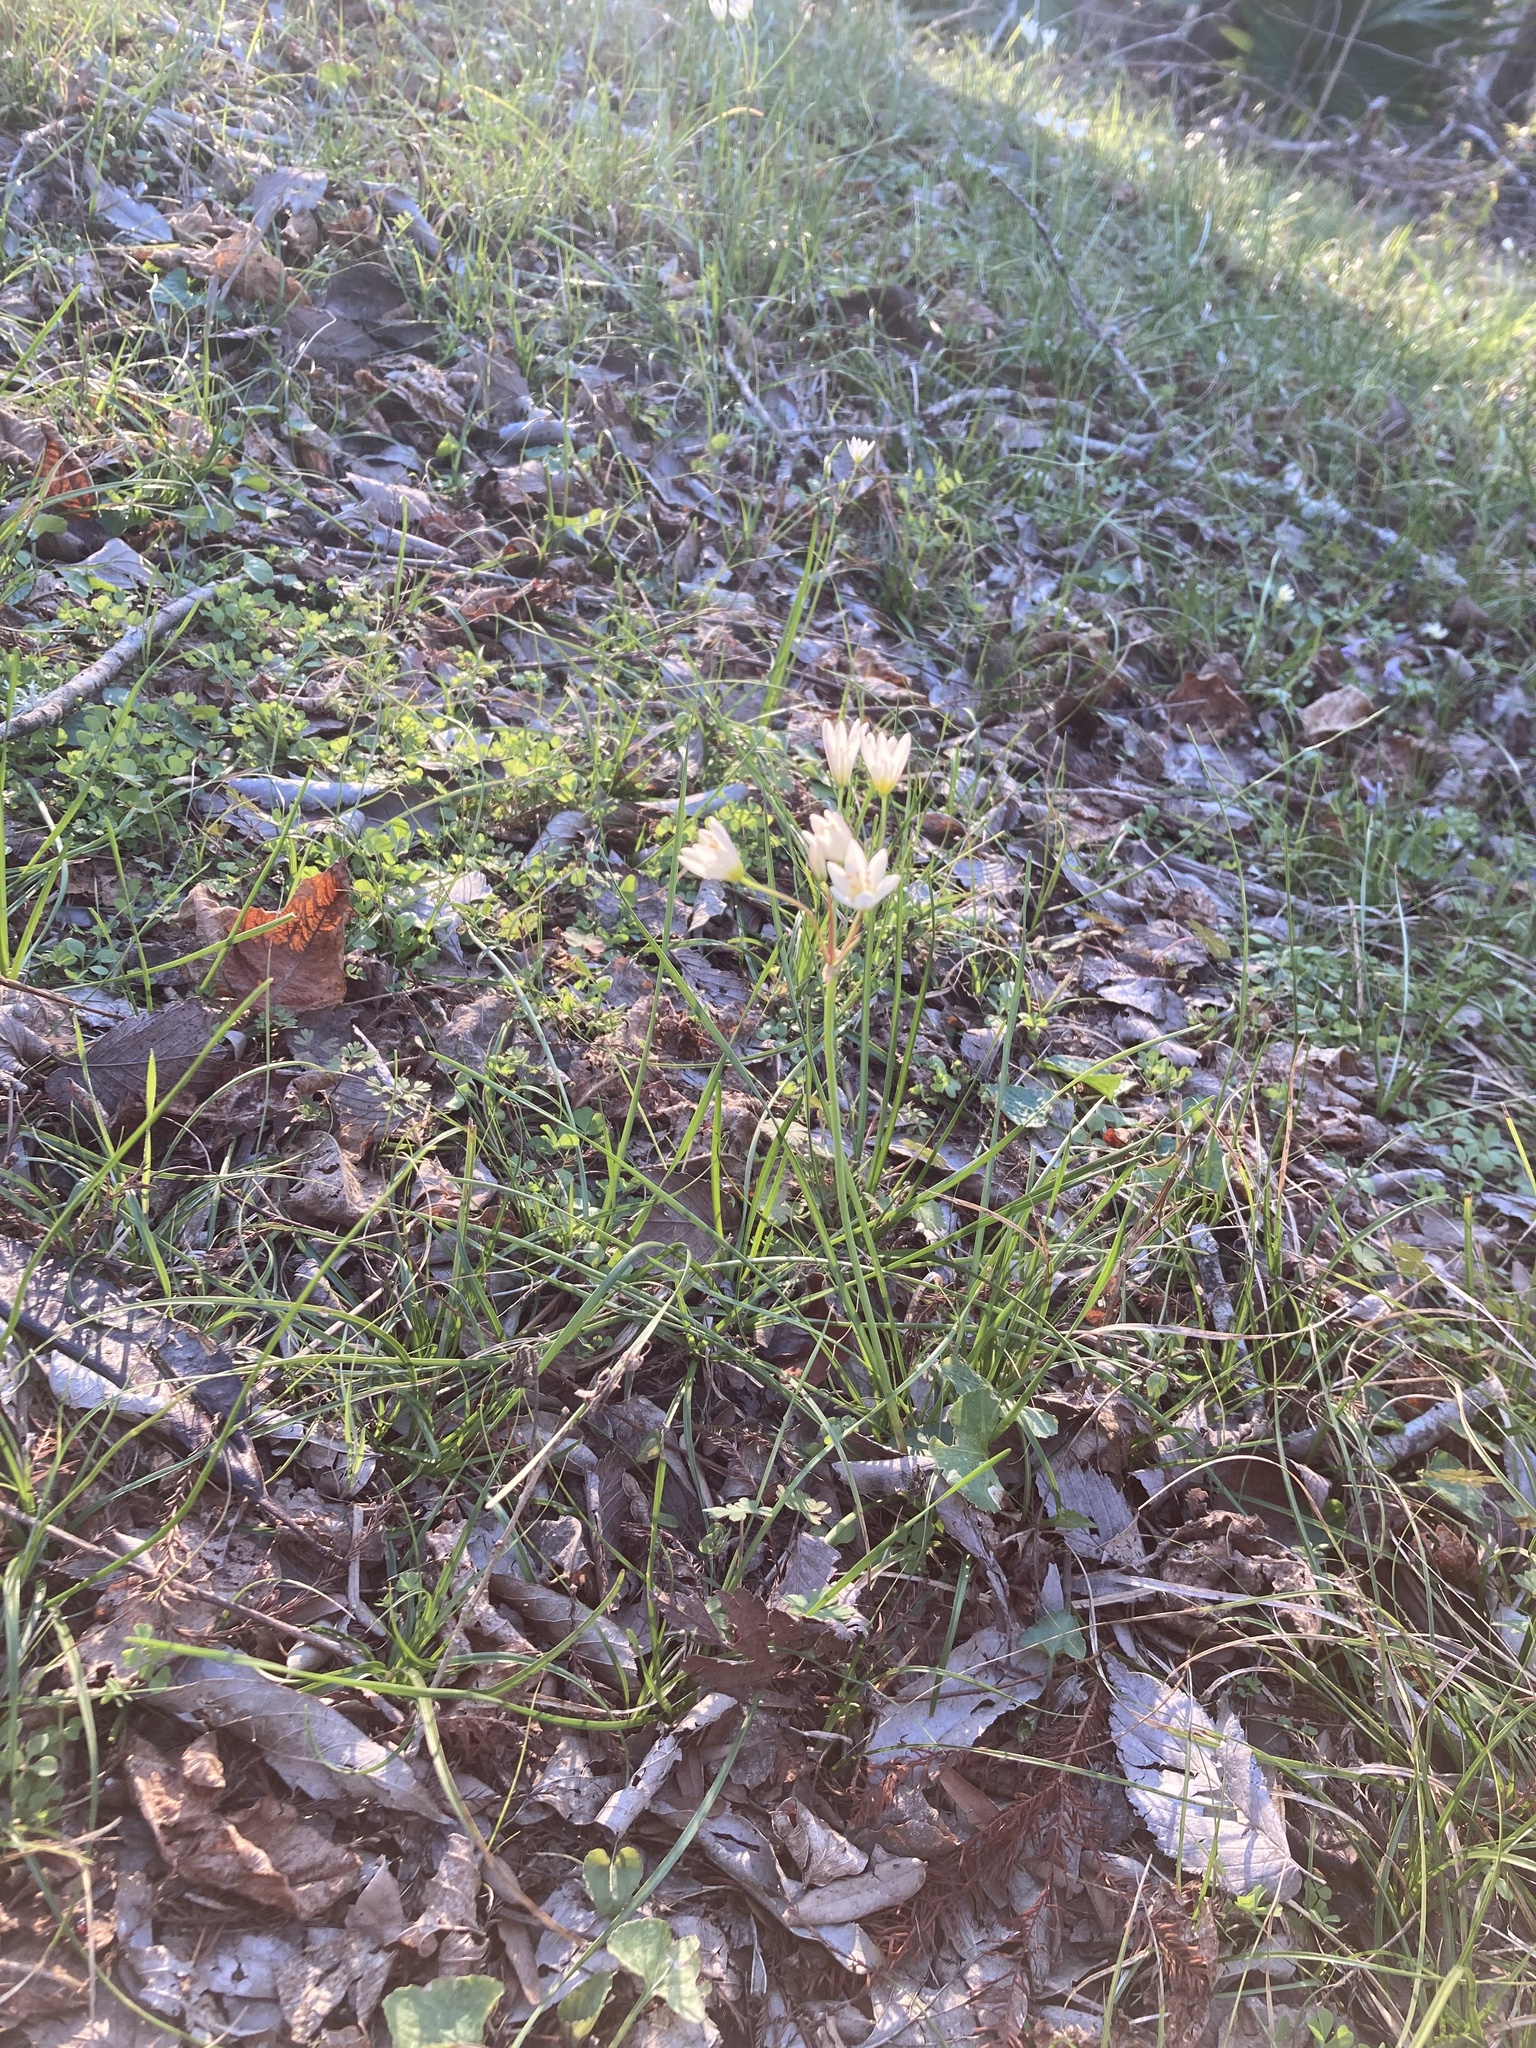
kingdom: Plantae
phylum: Tracheophyta
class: Liliopsida
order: Asparagales
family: Amaryllidaceae
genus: Nothoscordum
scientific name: Nothoscordum bivalve
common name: Crow-poison
